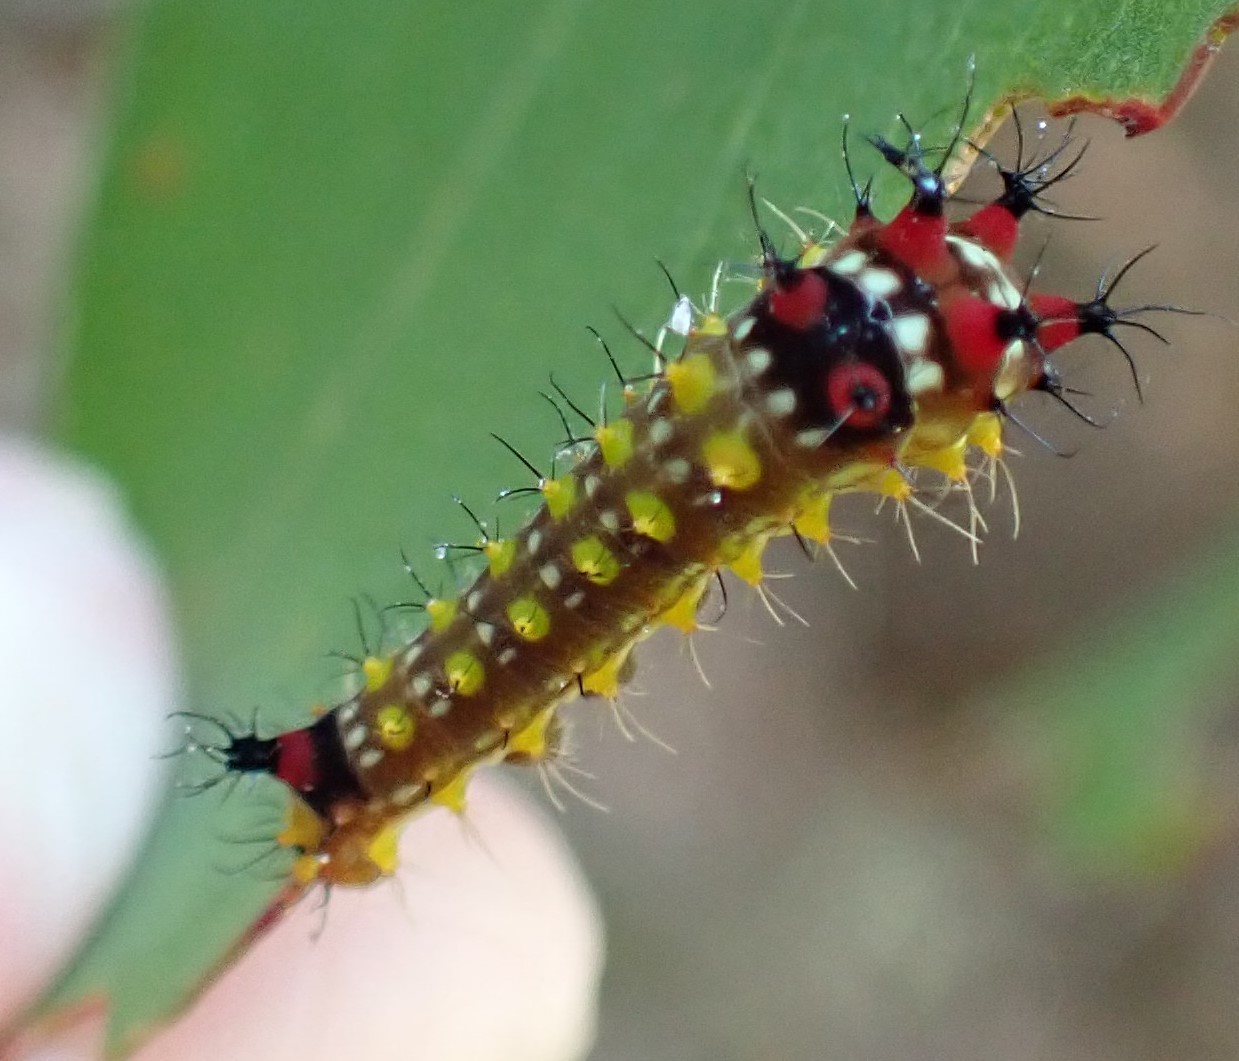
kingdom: Animalia
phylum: Arthropoda
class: Insecta
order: Lepidoptera
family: Saturniidae
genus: Opodiphthera
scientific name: Opodiphthera
